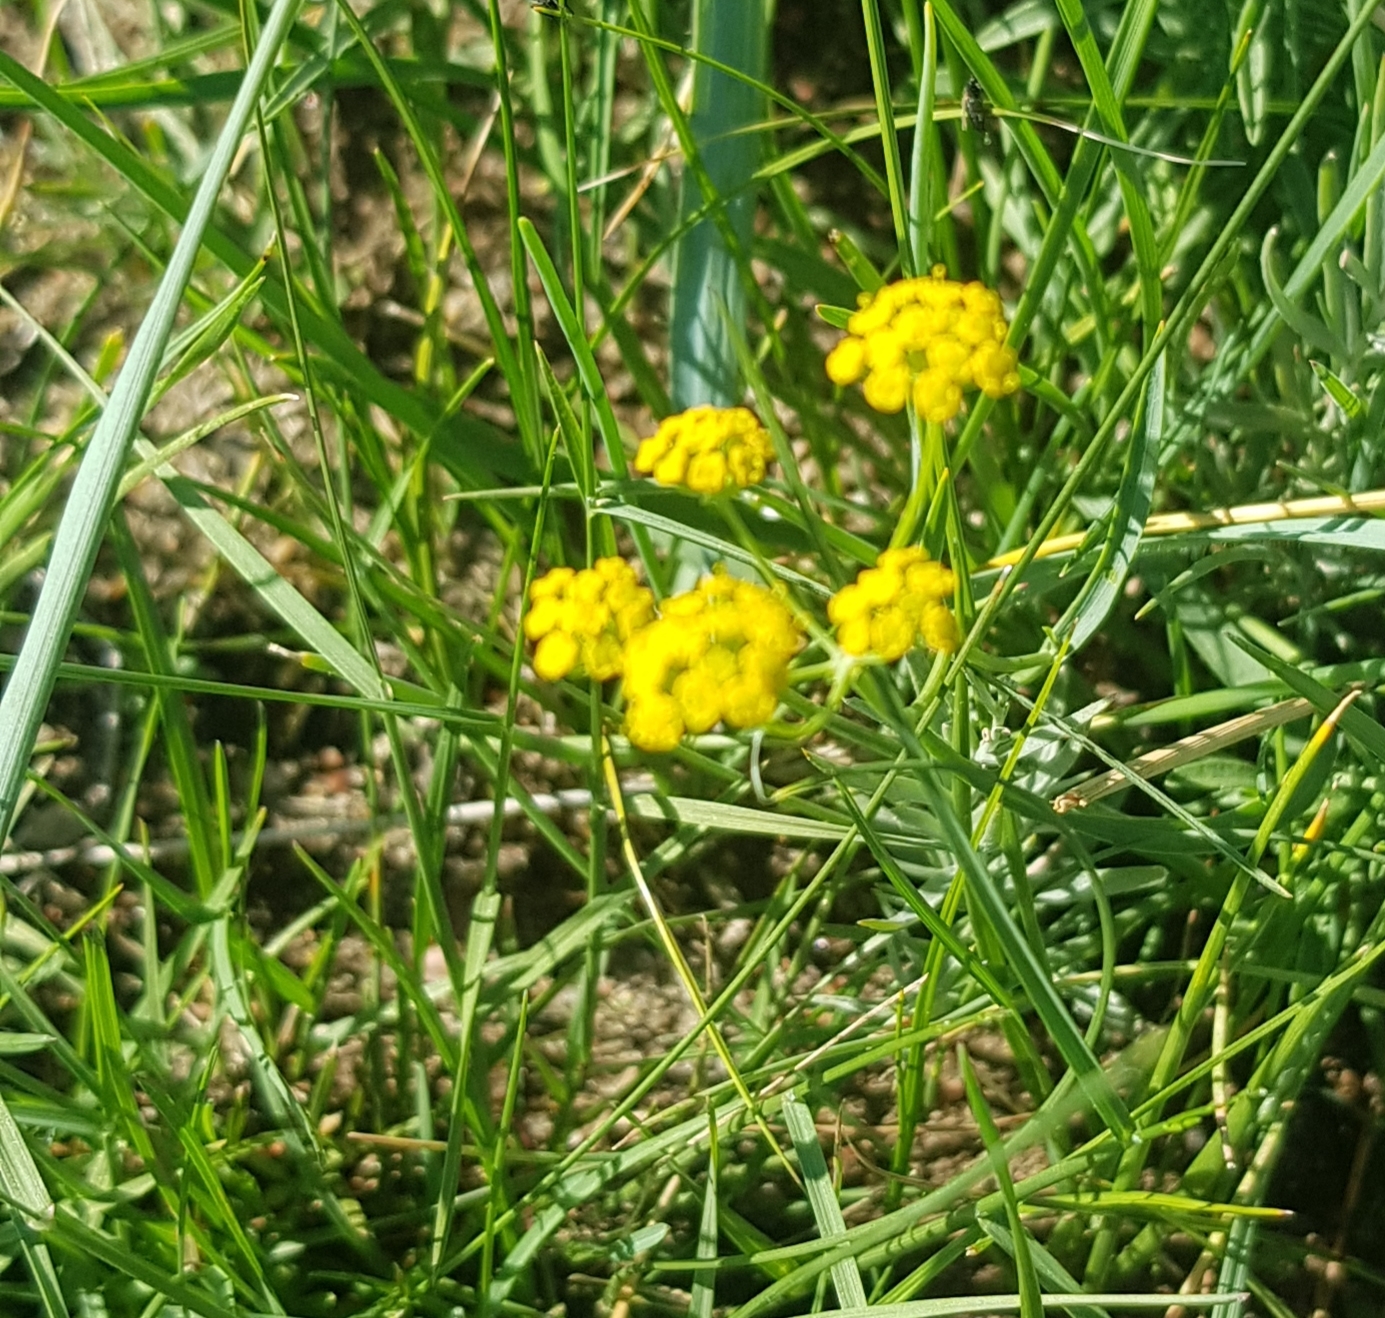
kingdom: Plantae
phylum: Tracheophyta
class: Magnoliopsida
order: Apiales
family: Apiaceae
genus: Bupleurum
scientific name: Bupleurum bicaule
